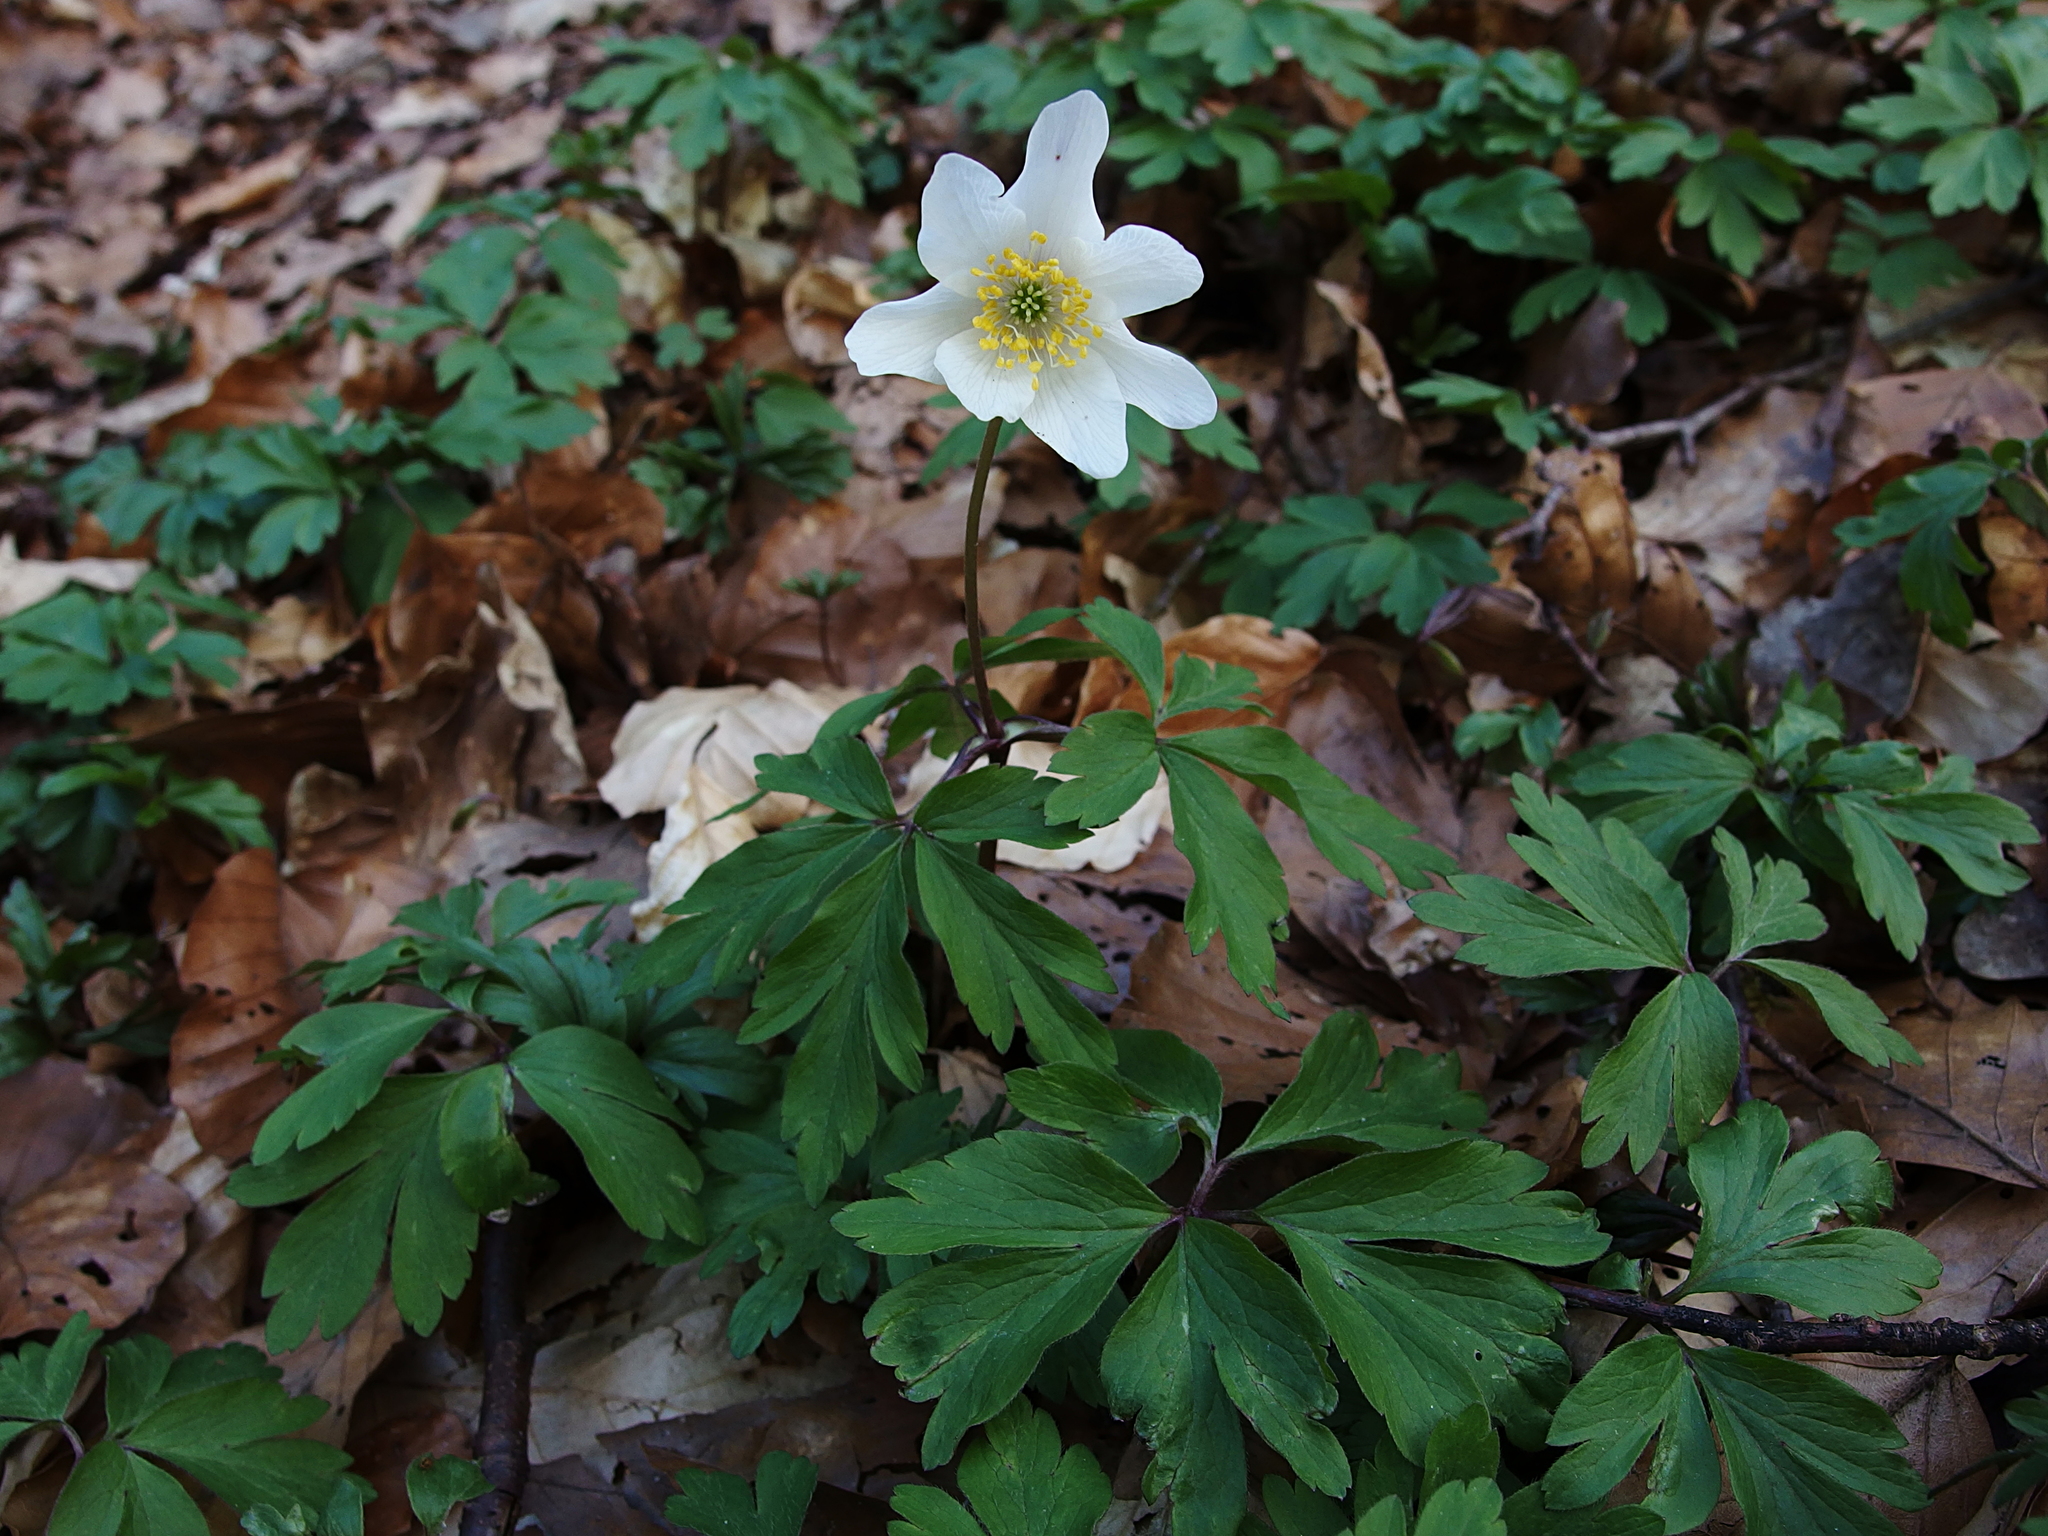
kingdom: Plantae
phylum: Tracheophyta
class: Magnoliopsida
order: Ranunculales
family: Ranunculaceae
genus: Anemone
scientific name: Anemone nemorosa
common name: Wood anemone
